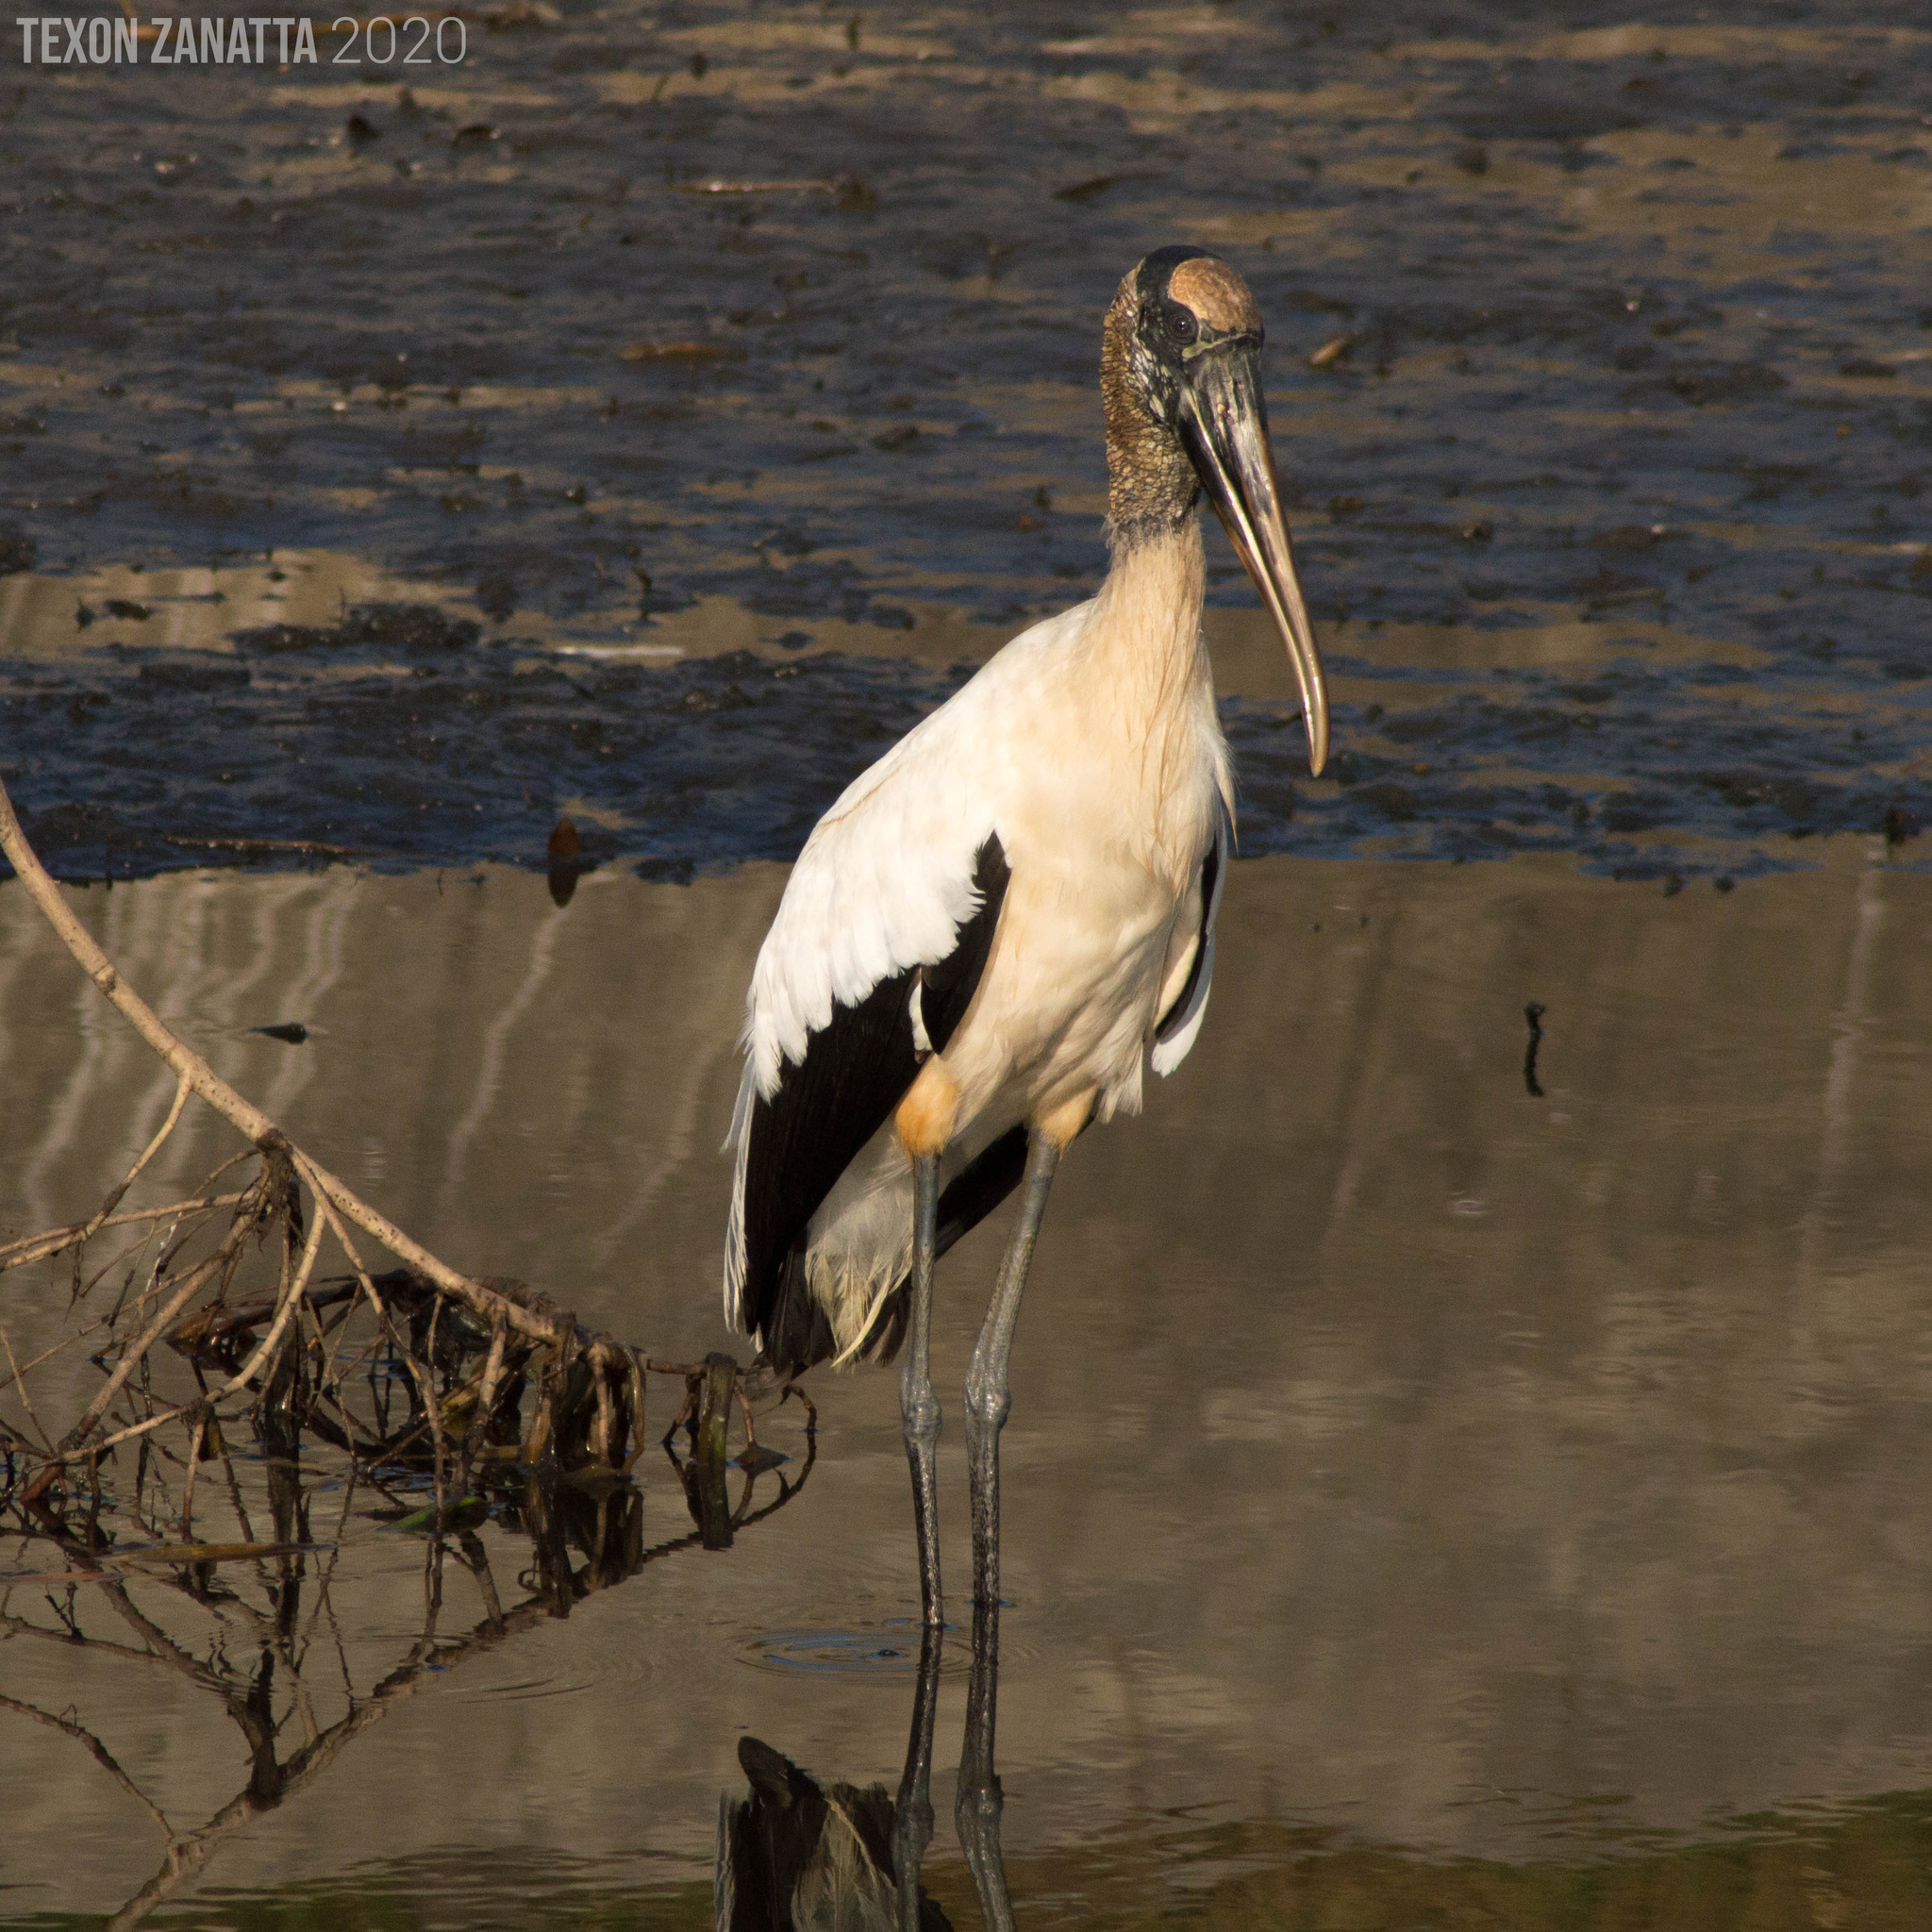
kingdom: Animalia
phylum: Chordata
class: Aves
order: Ciconiiformes
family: Ciconiidae
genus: Mycteria
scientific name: Mycteria americana
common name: Wood stork
